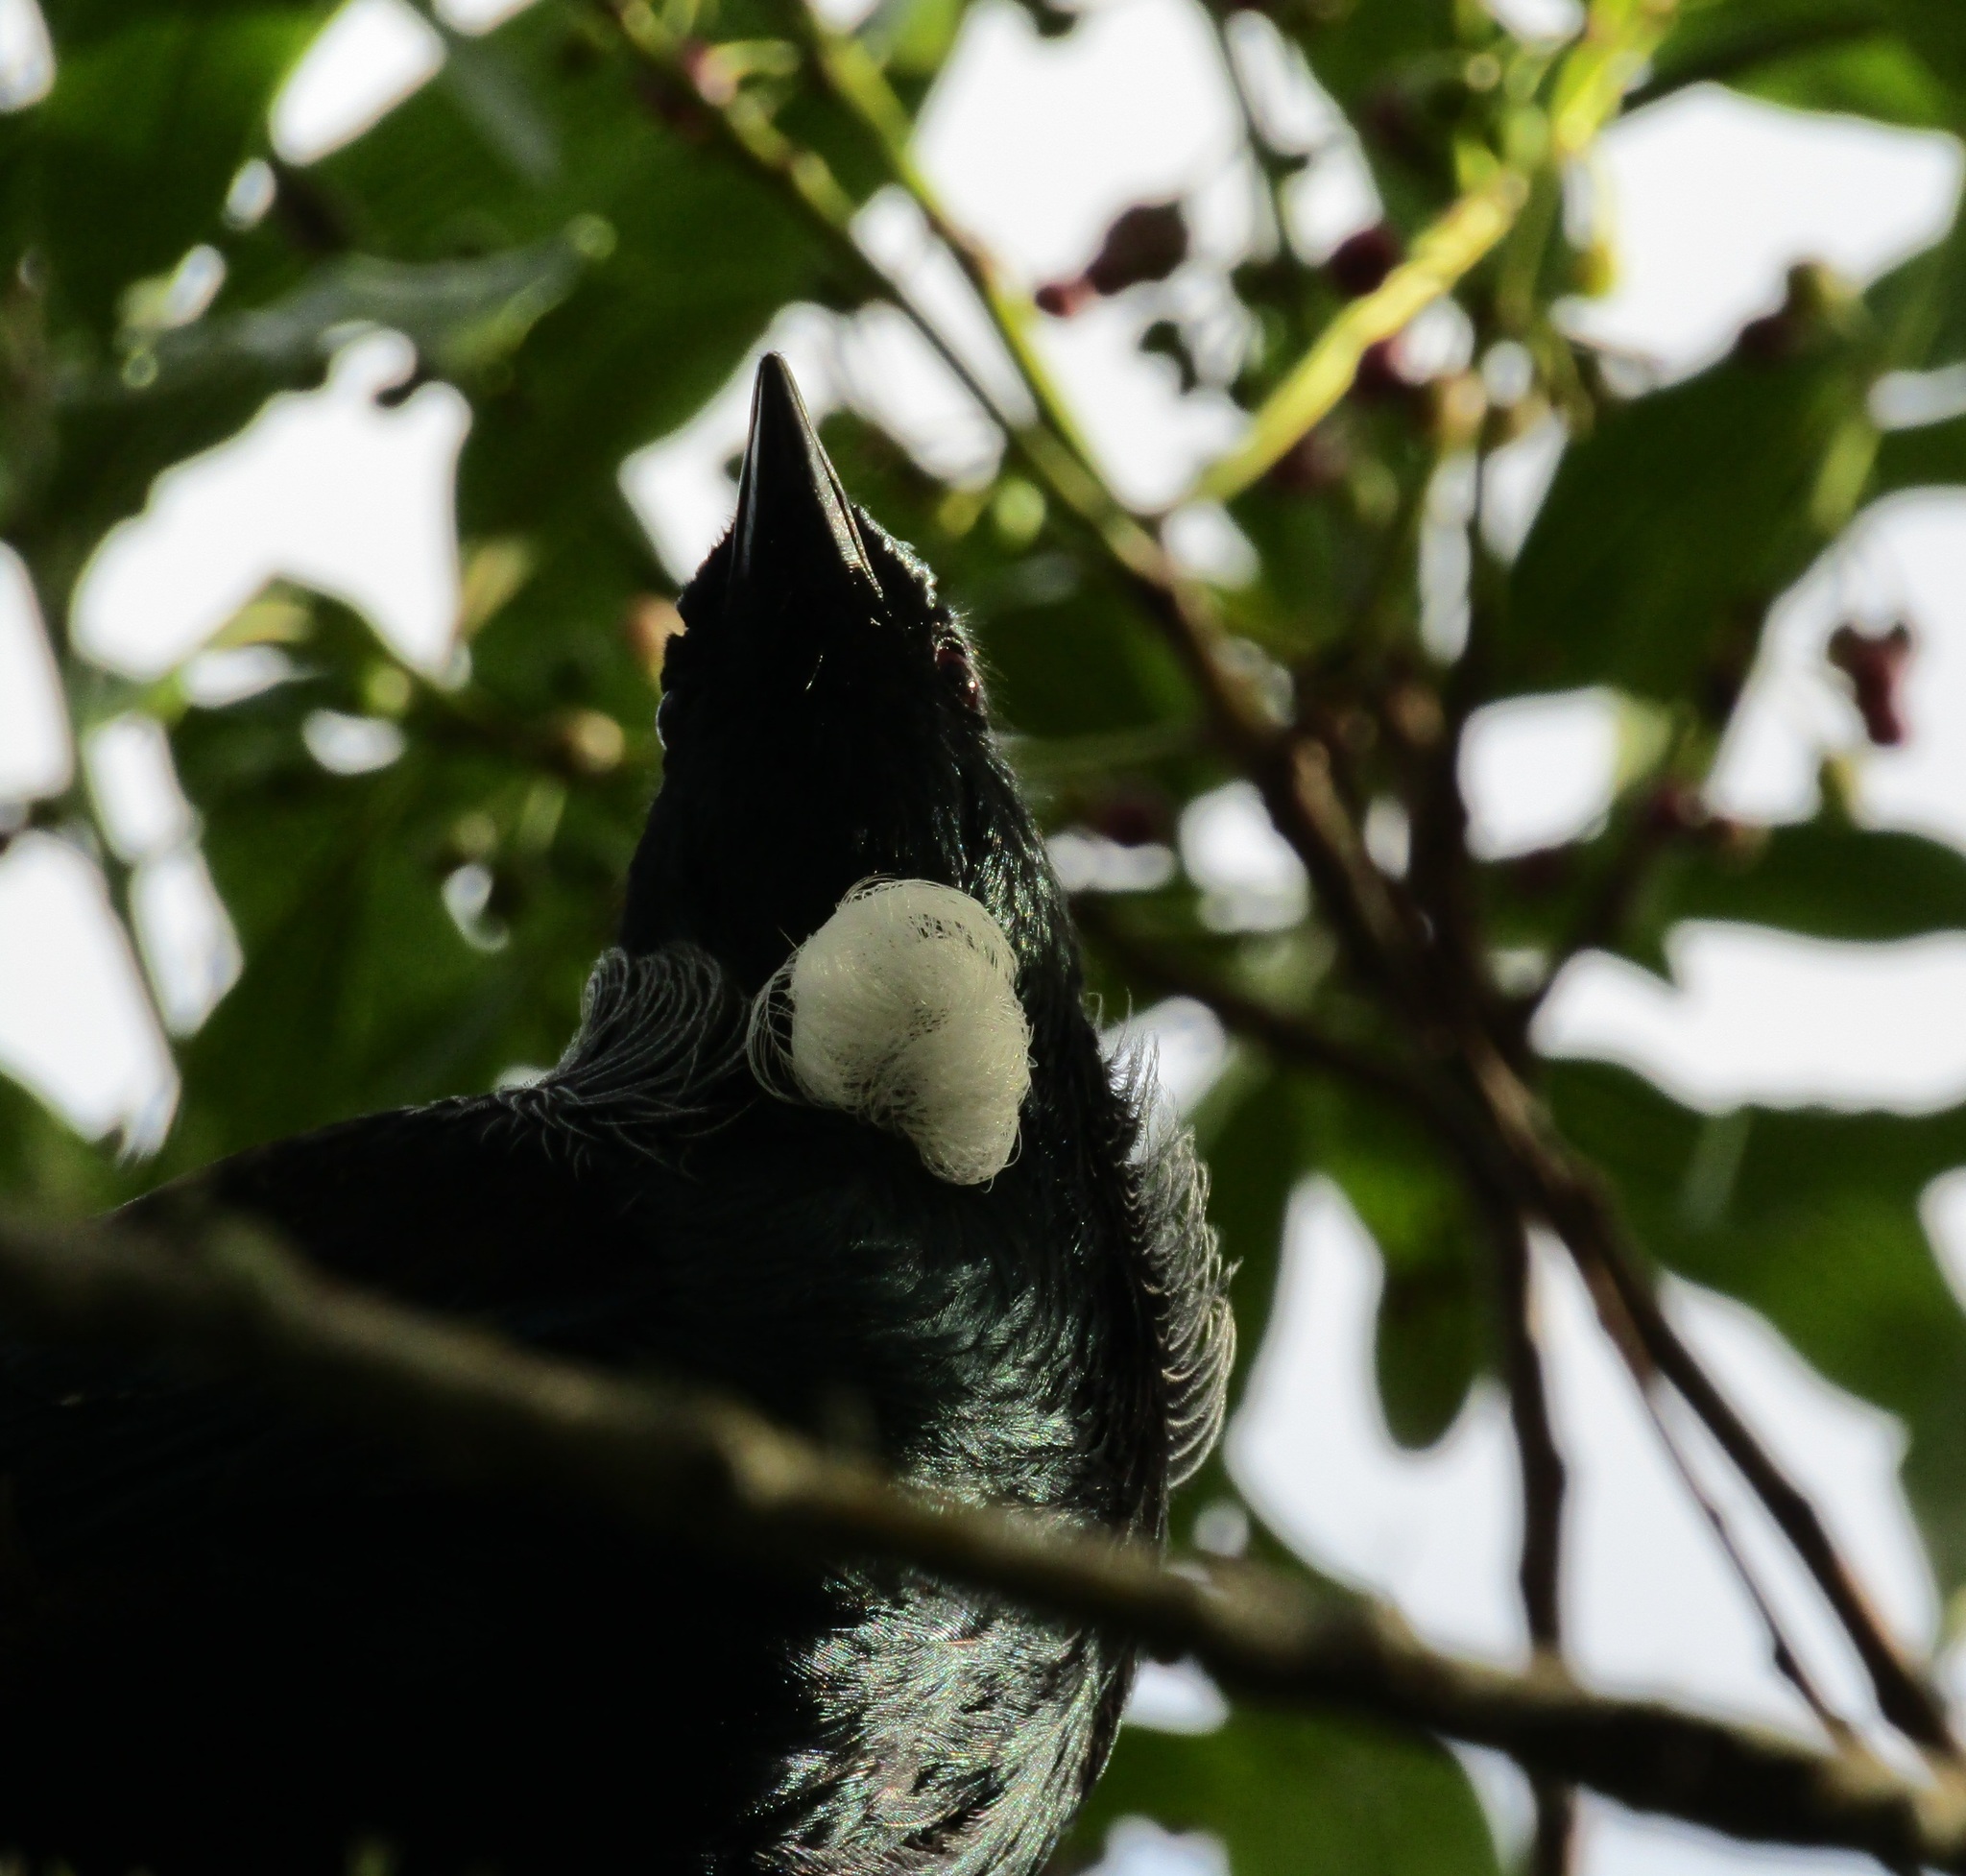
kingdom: Animalia
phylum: Chordata
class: Aves
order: Passeriformes
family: Meliphagidae
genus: Prosthemadera
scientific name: Prosthemadera novaeseelandiae
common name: Tui
